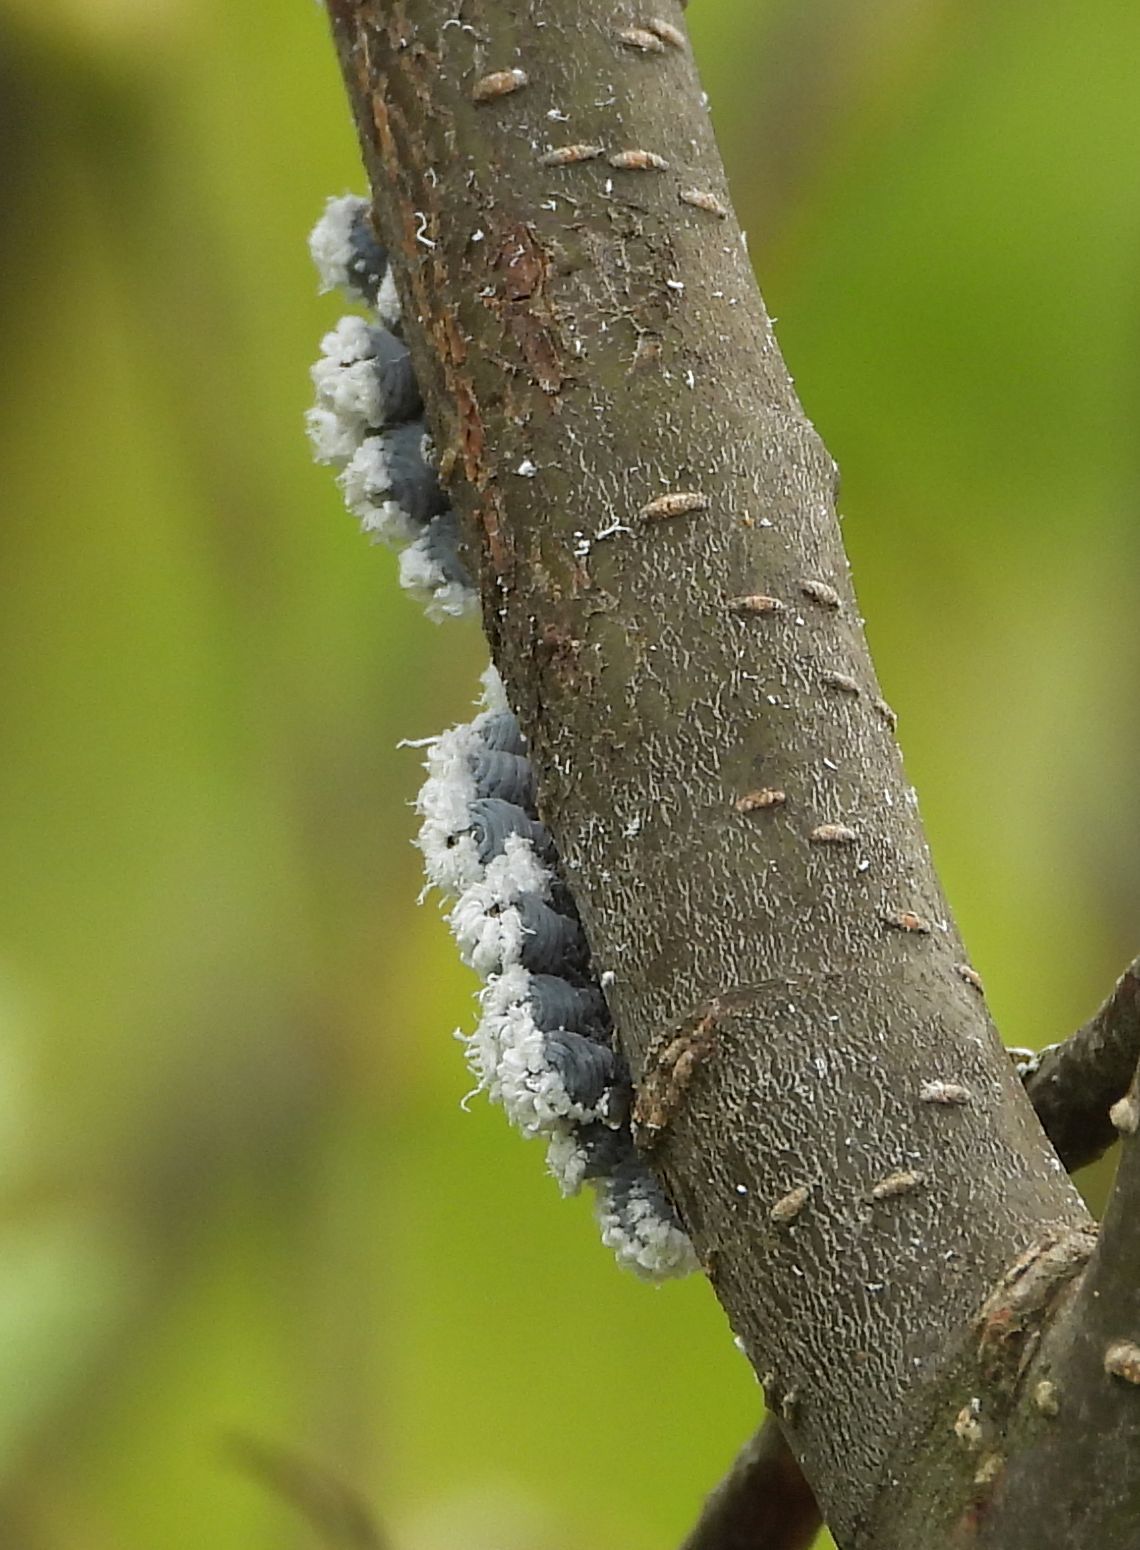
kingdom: Animalia
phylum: Arthropoda
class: Insecta
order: Hemiptera
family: Aphididae
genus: Prociphilus
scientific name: Prociphilus tessellatus
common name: Woolly alder aphid
